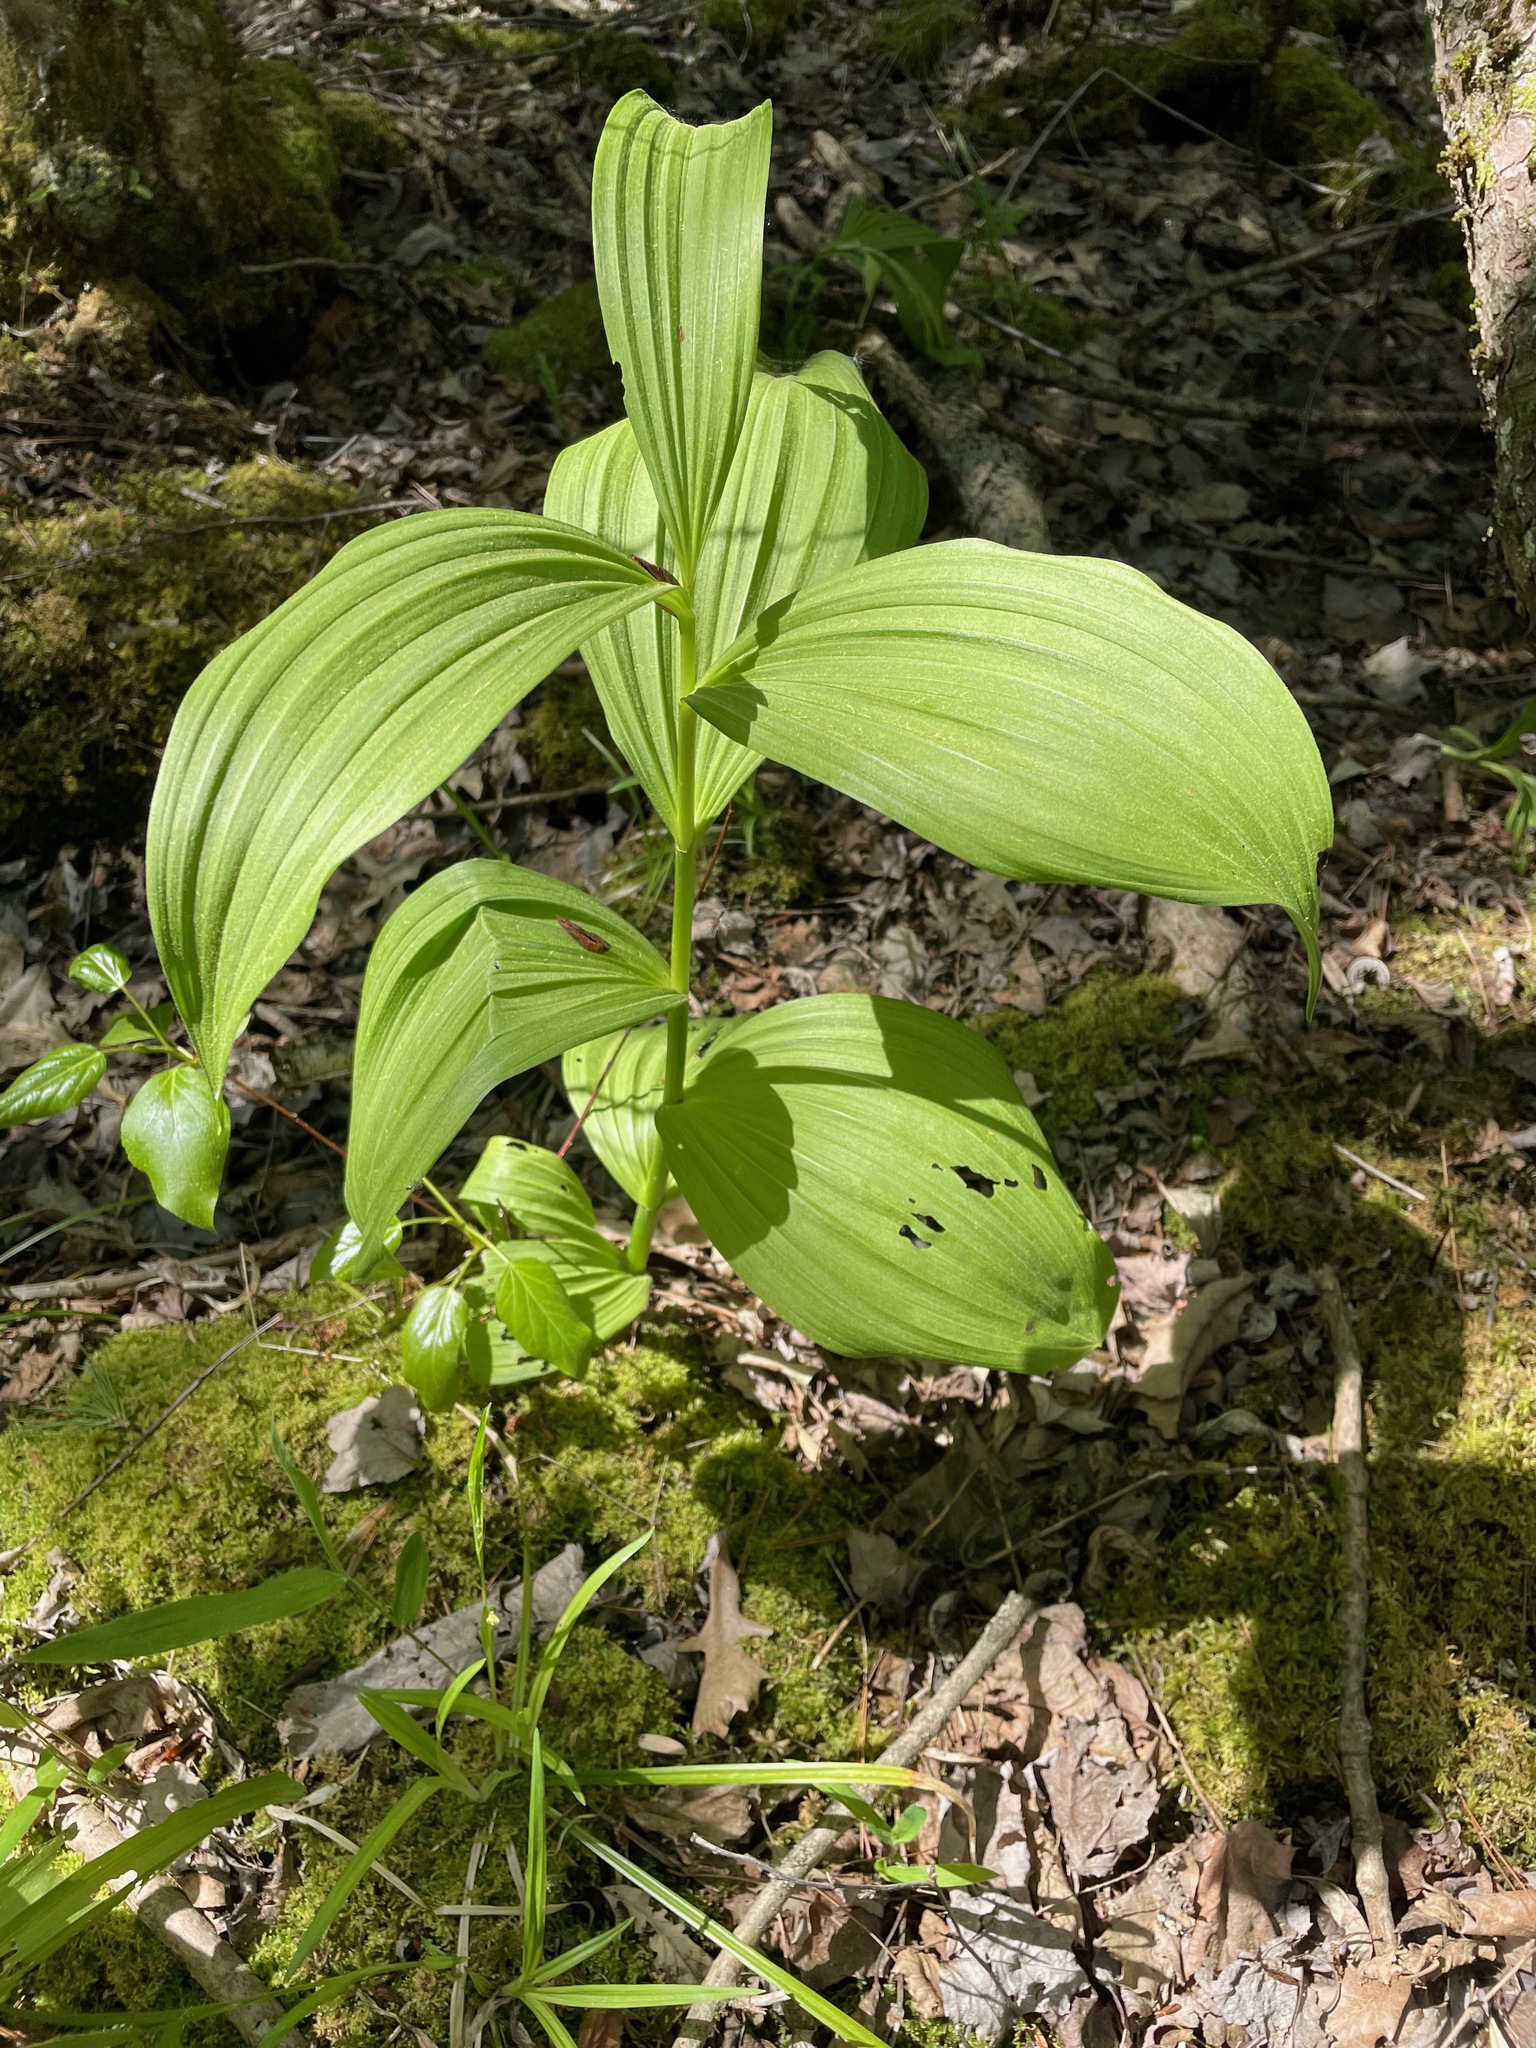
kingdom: Plantae
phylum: Tracheophyta
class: Liliopsida
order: Liliales
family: Melanthiaceae
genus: Veratrum
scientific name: Veratrum viride
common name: American false hellebore
